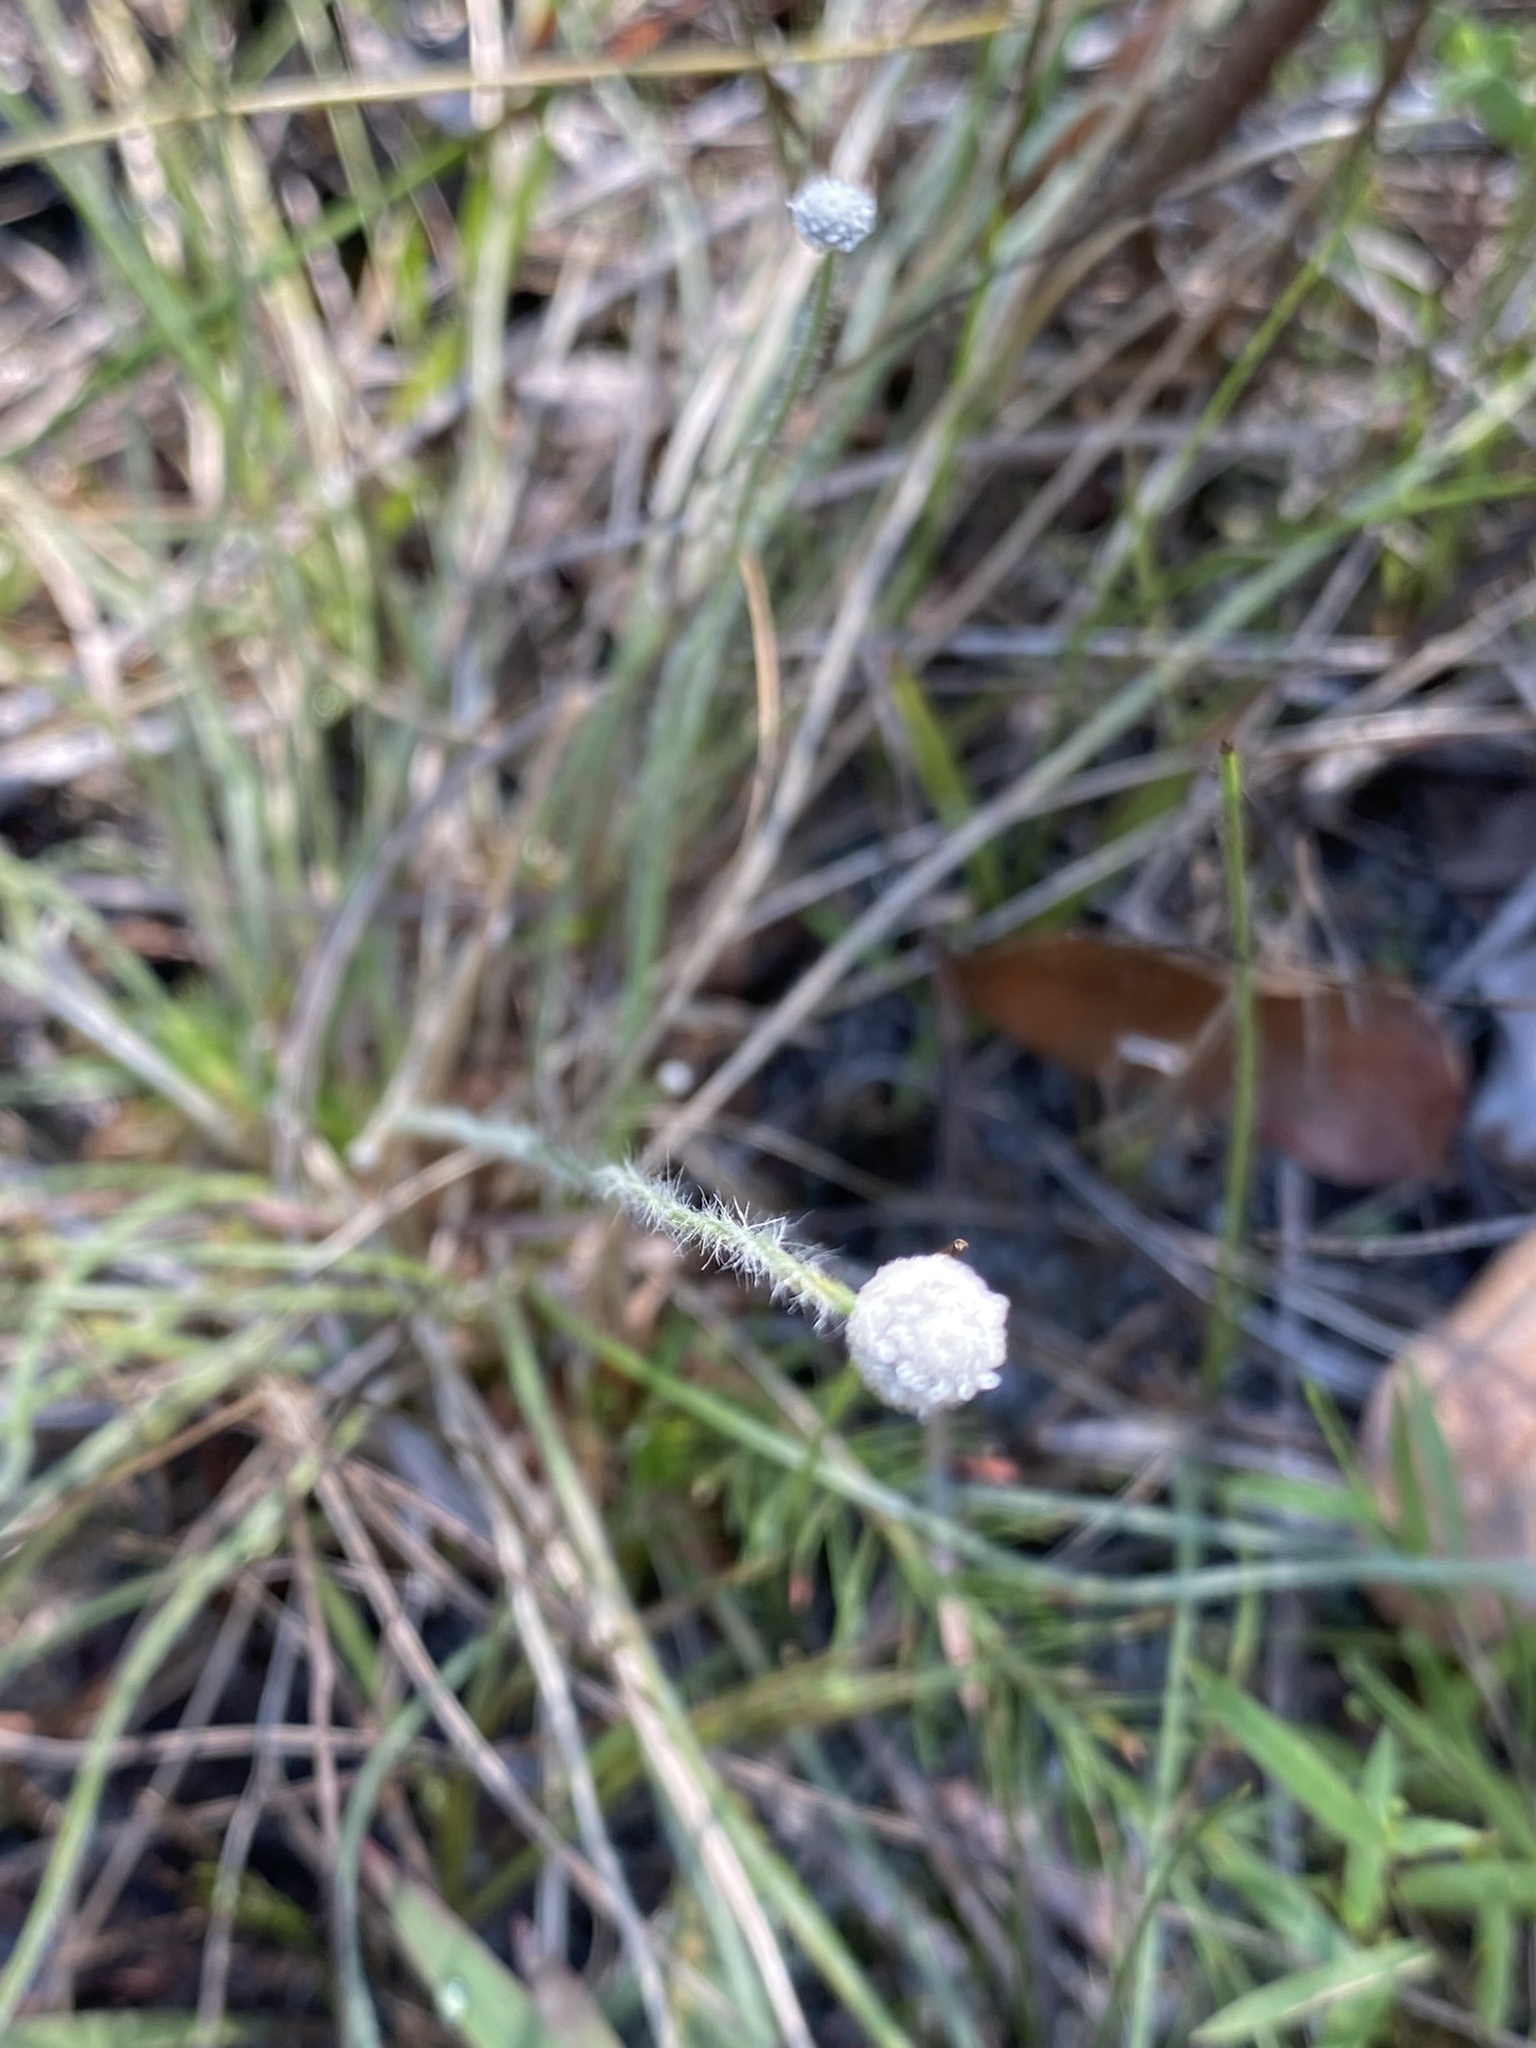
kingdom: Plantae
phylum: Tracheophyta
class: Liliopsida
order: Poales
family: Eriocaulaceae
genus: Paepalanthus
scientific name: Paepalanthus anceps
